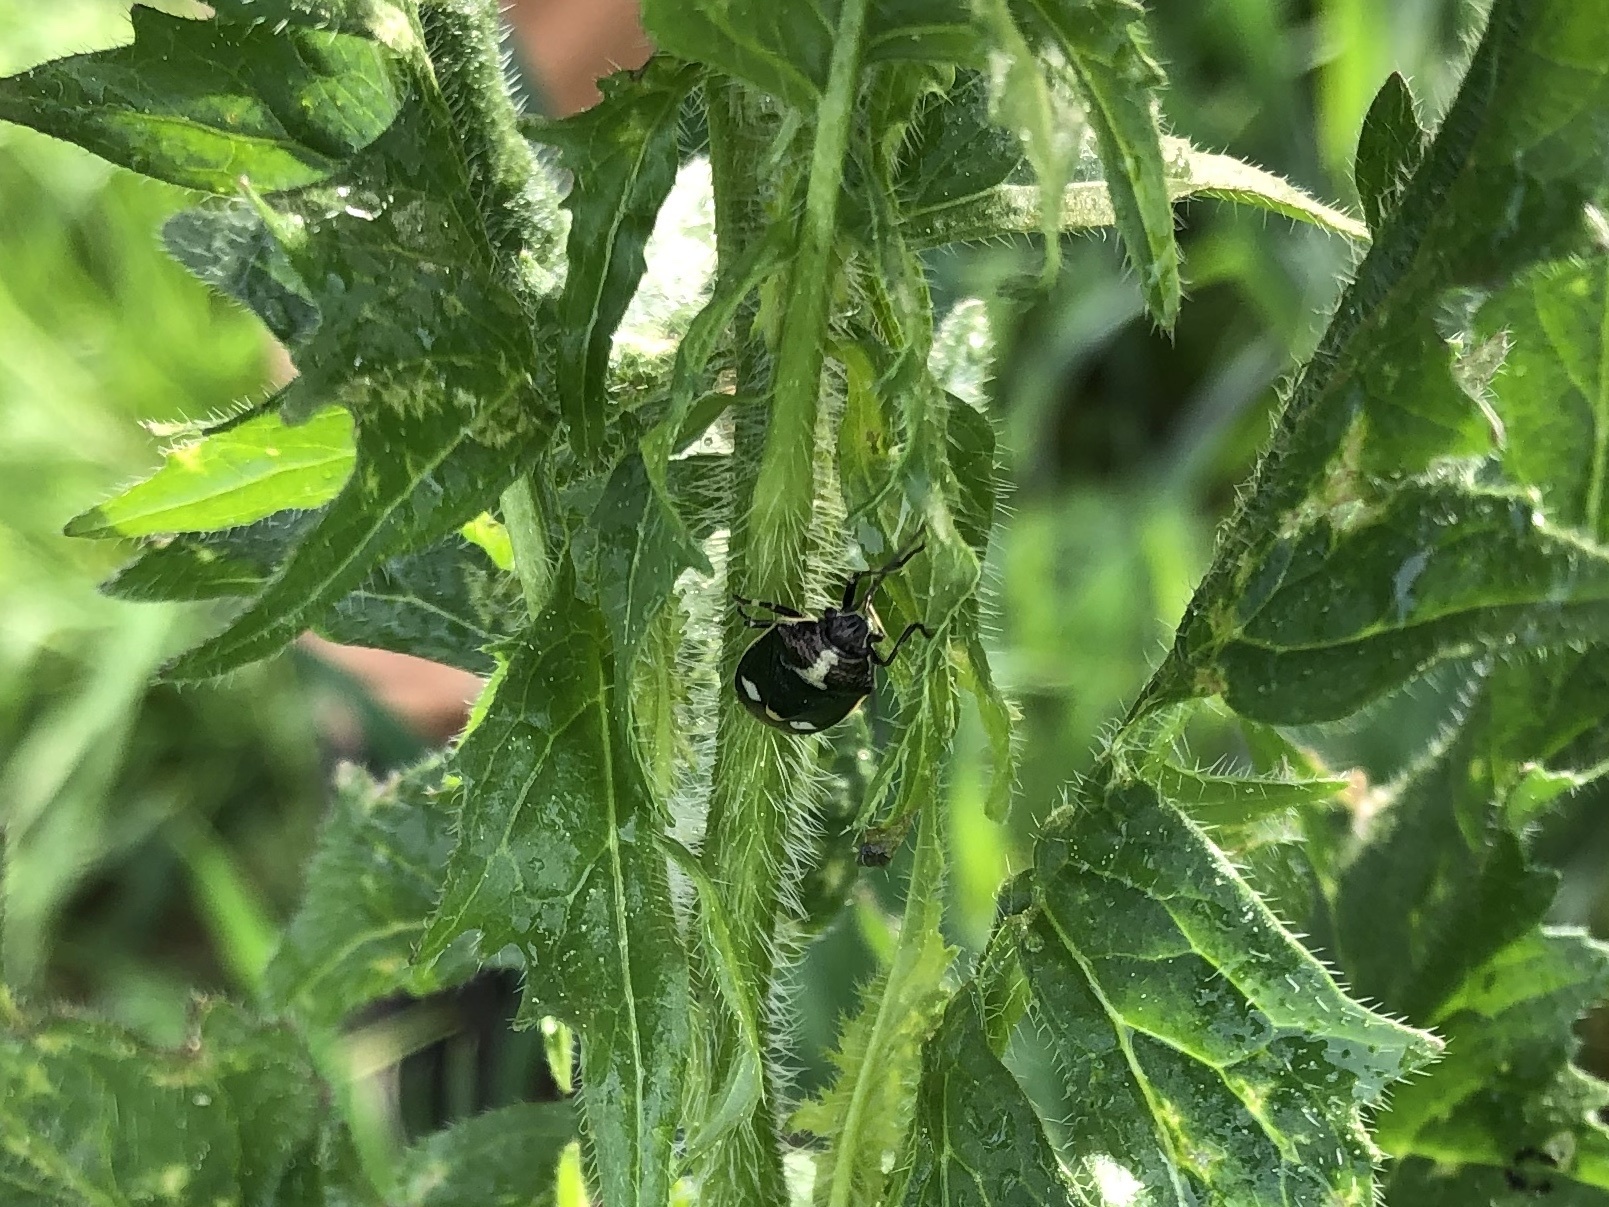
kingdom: Animalia
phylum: Arthropoda
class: Insecta
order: Hemiptera
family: Pentatomidae
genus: Eurydema
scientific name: Eurydema oleracea
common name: Cabbage bug
